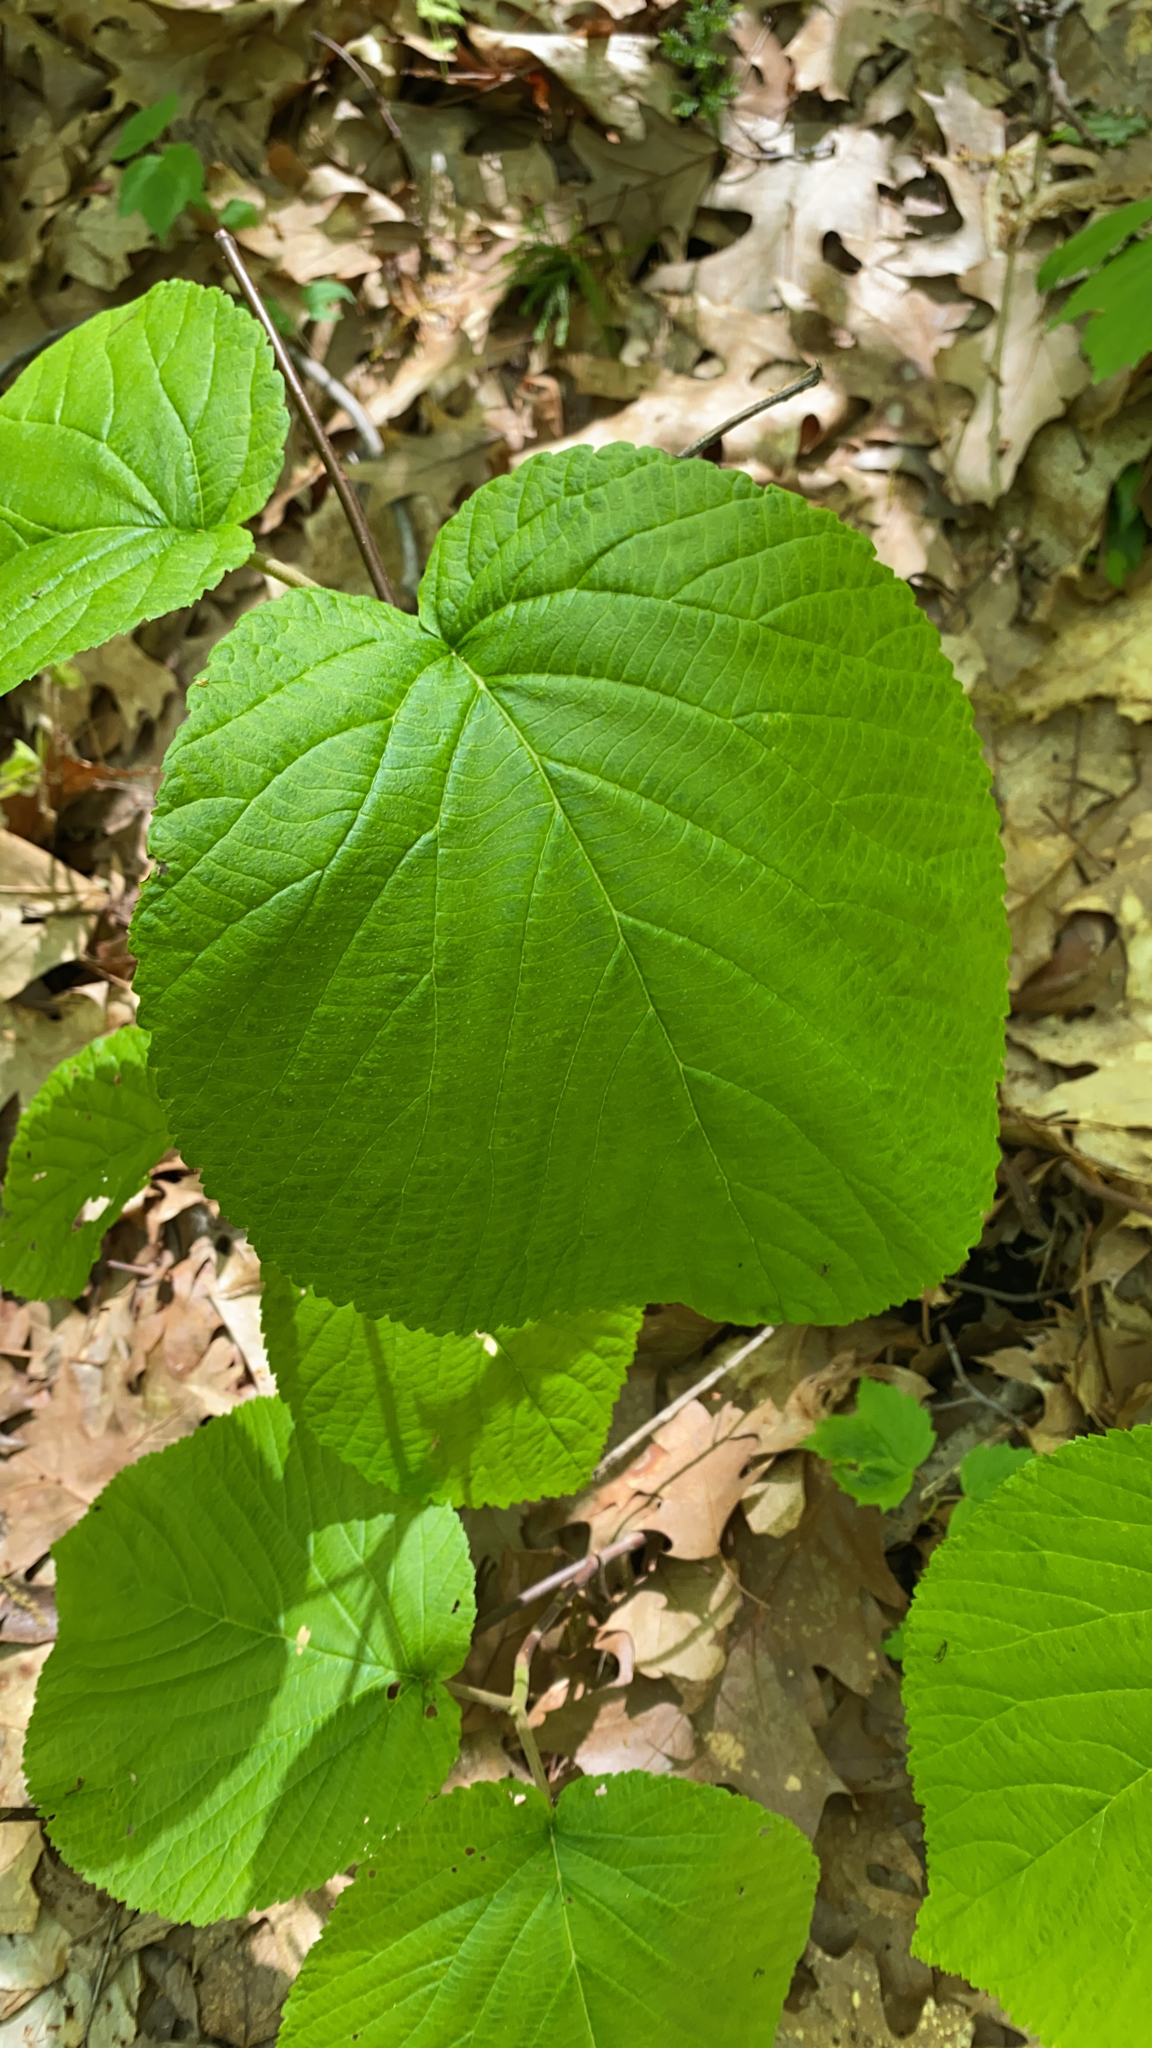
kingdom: Plantae
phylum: Tracheophyta
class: Magnoliopsida
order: Dipsacales
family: Viburnaceae
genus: Viburnum
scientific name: Viburnum lantanoides
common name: Hobblebush
